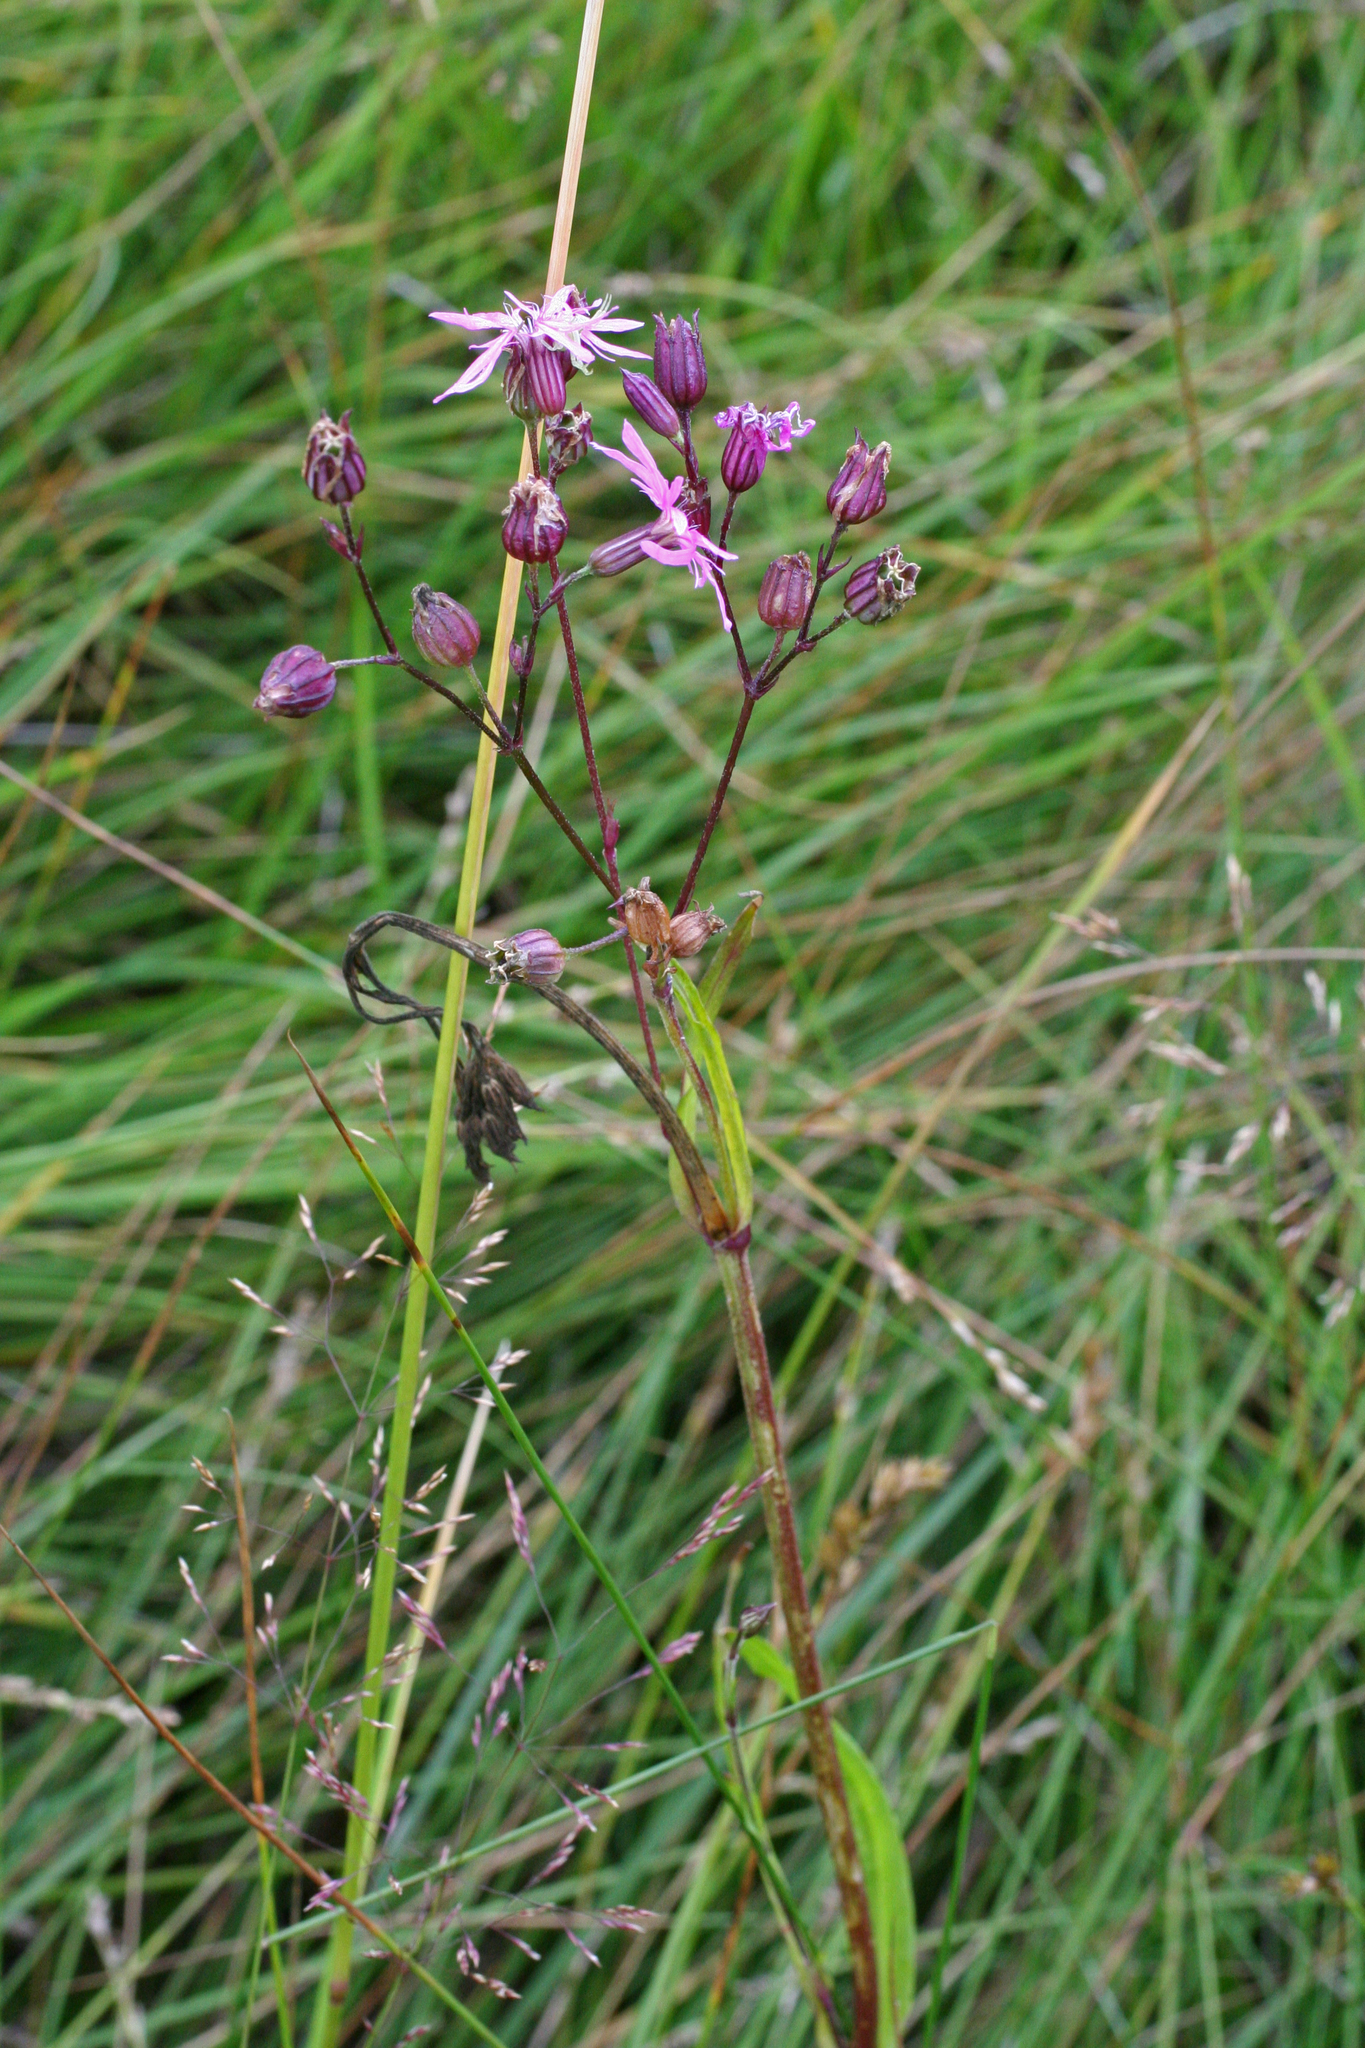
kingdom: Plantae
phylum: Tracheophyta
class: Magnoliopsida
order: Caryophyllales
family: Caryophyllaceae
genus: Silene
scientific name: Silene flos-cuculi
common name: Ragged-robin
